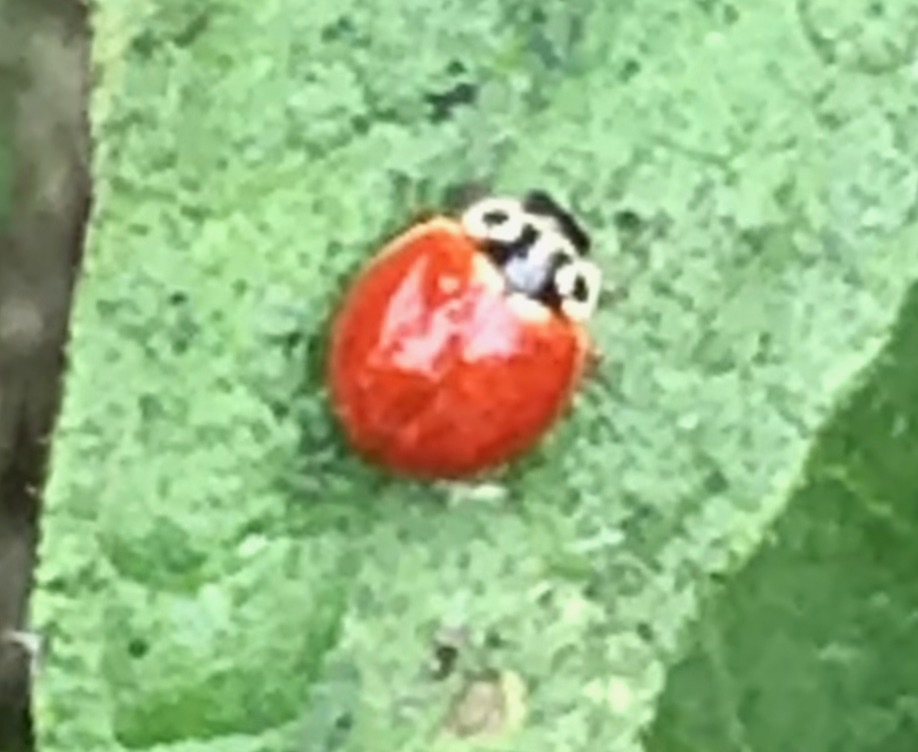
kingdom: Animalia
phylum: Arthropoda
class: Insecta
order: Coleoptera
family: Coccinellidae
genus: Cycloneda
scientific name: Cycloneda polita
